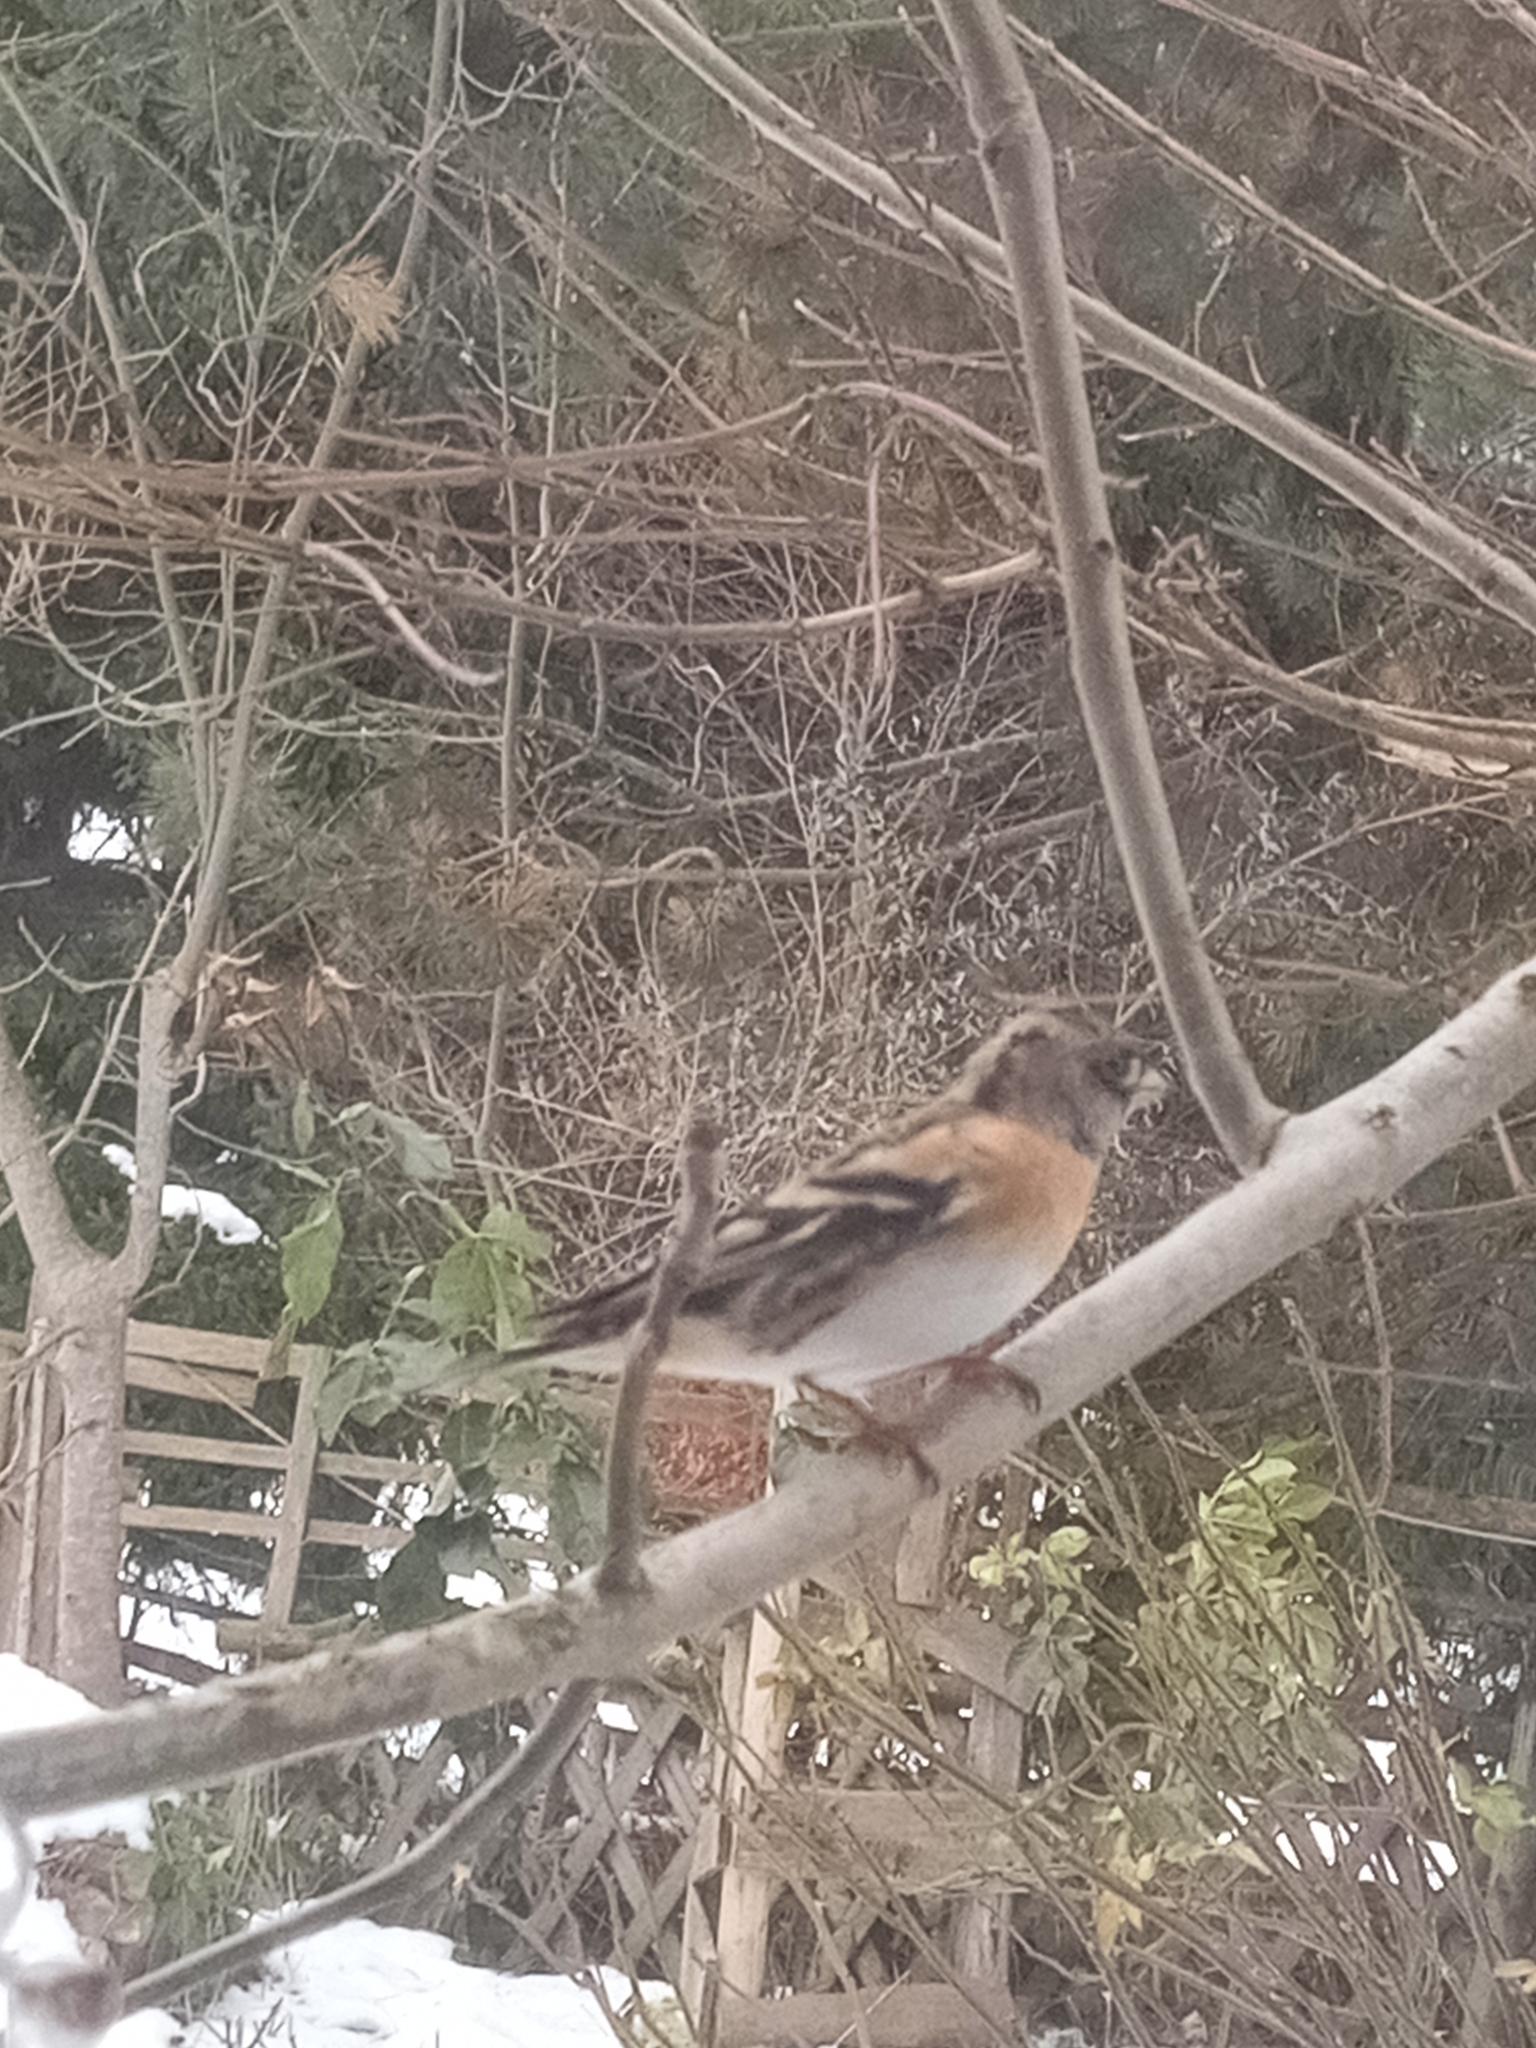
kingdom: Animalia
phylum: Chordata
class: Aves
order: Passeriformes
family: Fringillidae
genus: Fringilla
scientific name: Fringilla montifringilla
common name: Brambling
